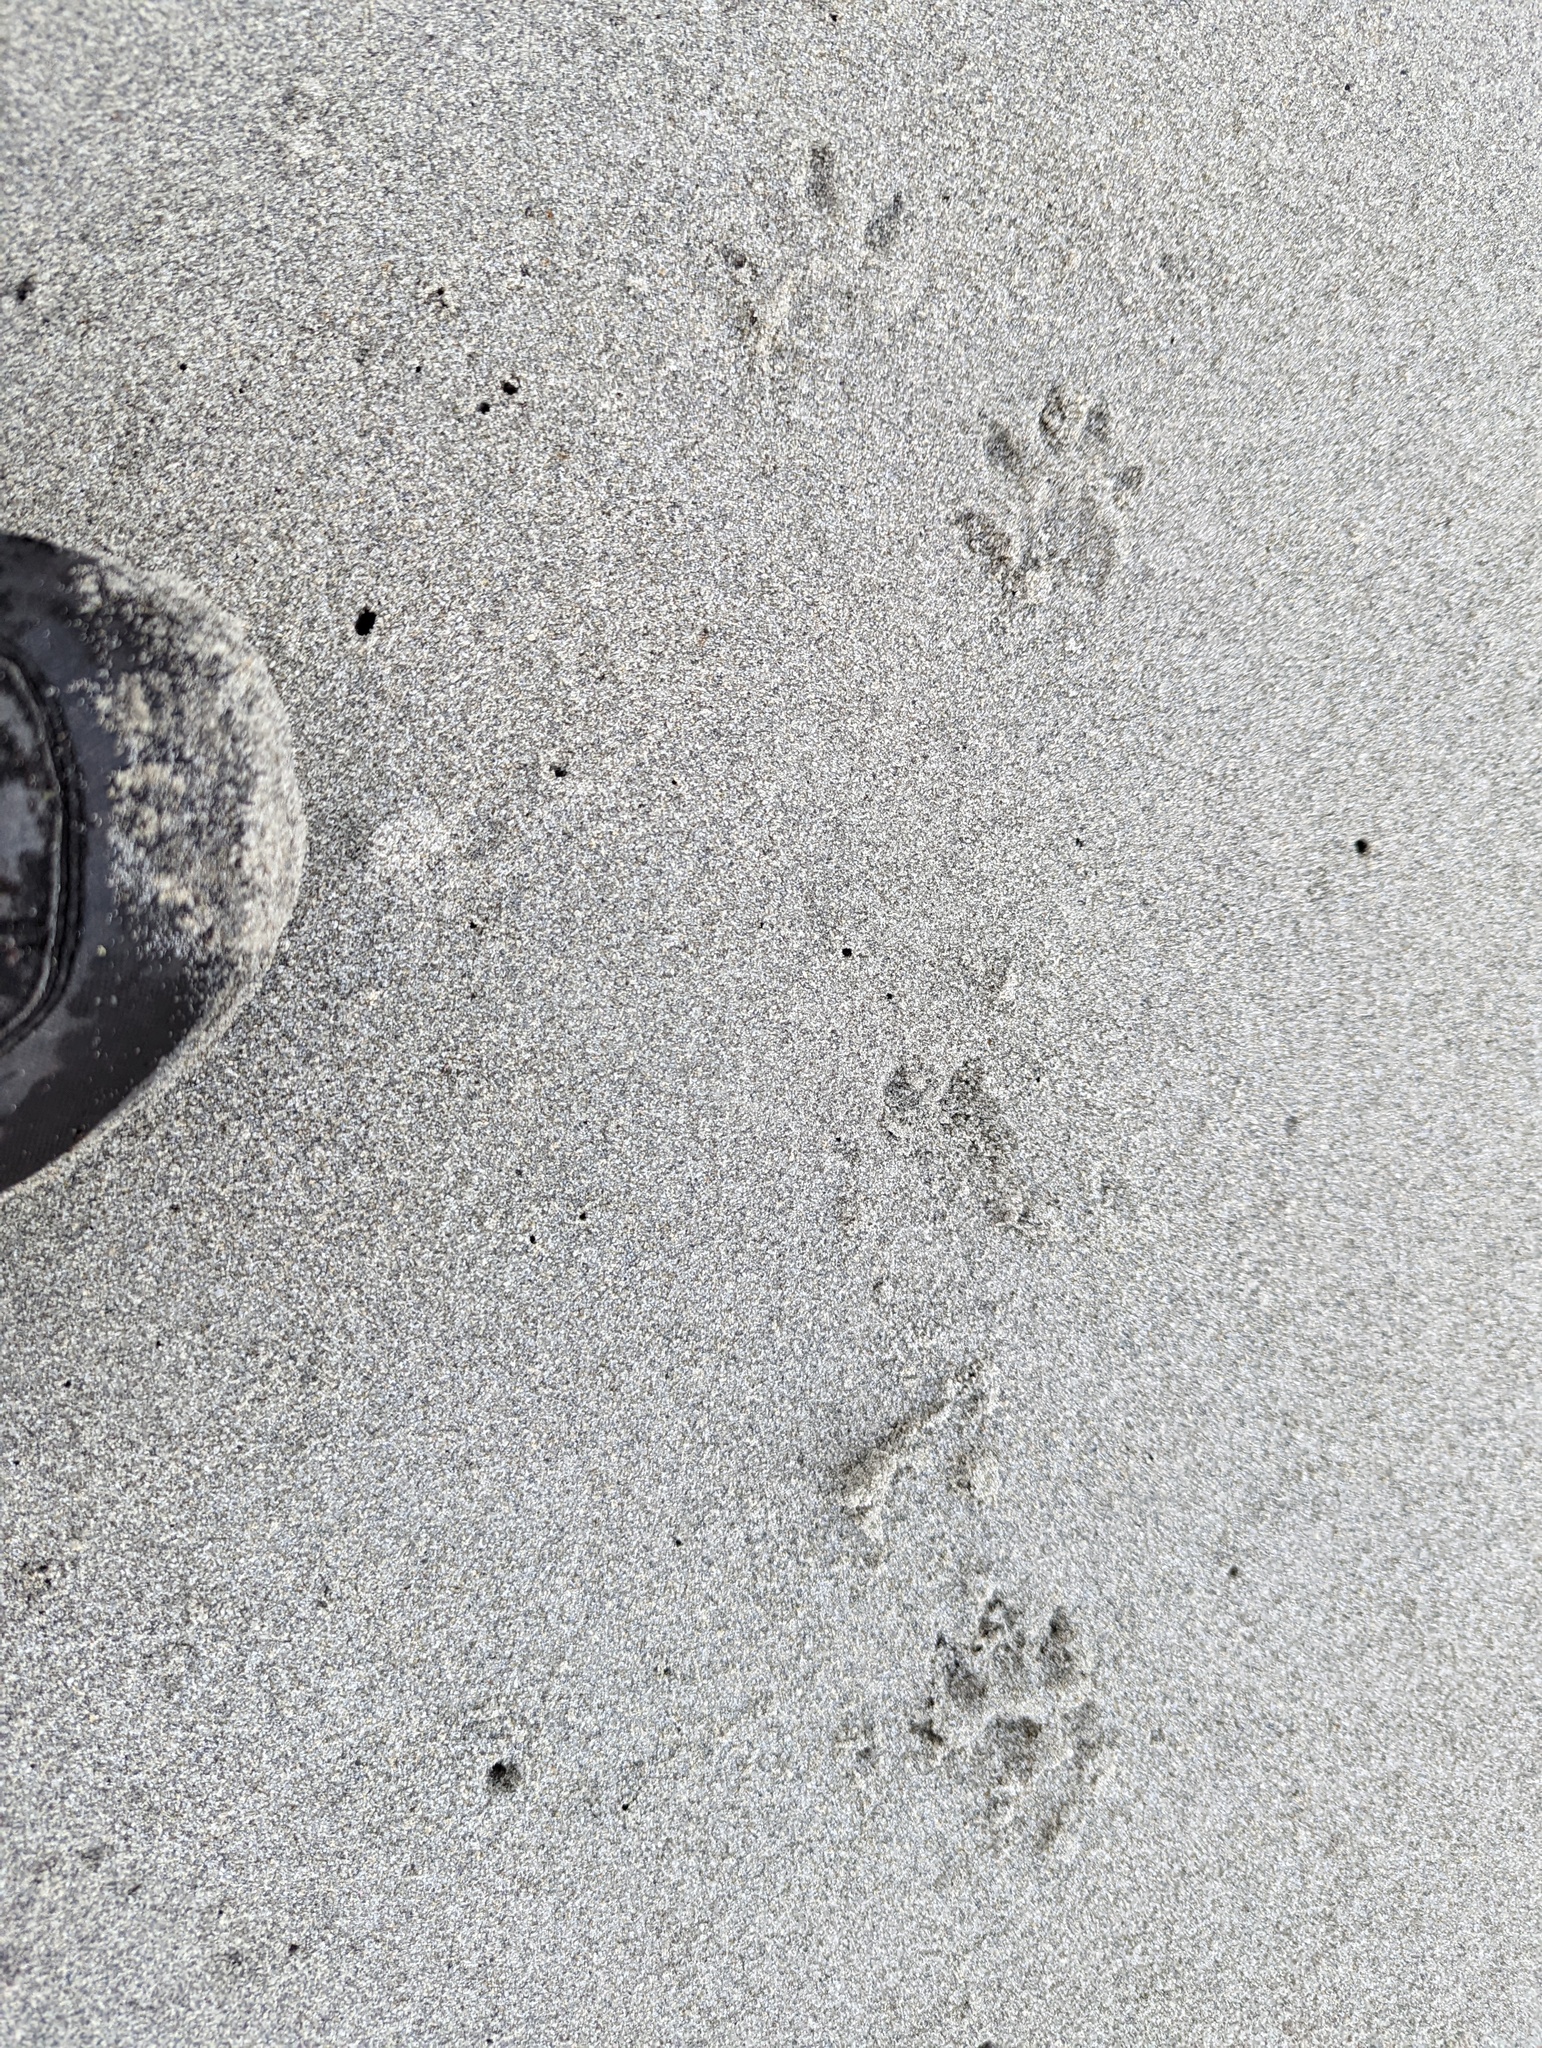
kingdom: Animalia
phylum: Chordata
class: Mammalia
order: Carnivora
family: Mustelidae
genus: Lontra
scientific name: Lontra canadensis
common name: North american river otter
